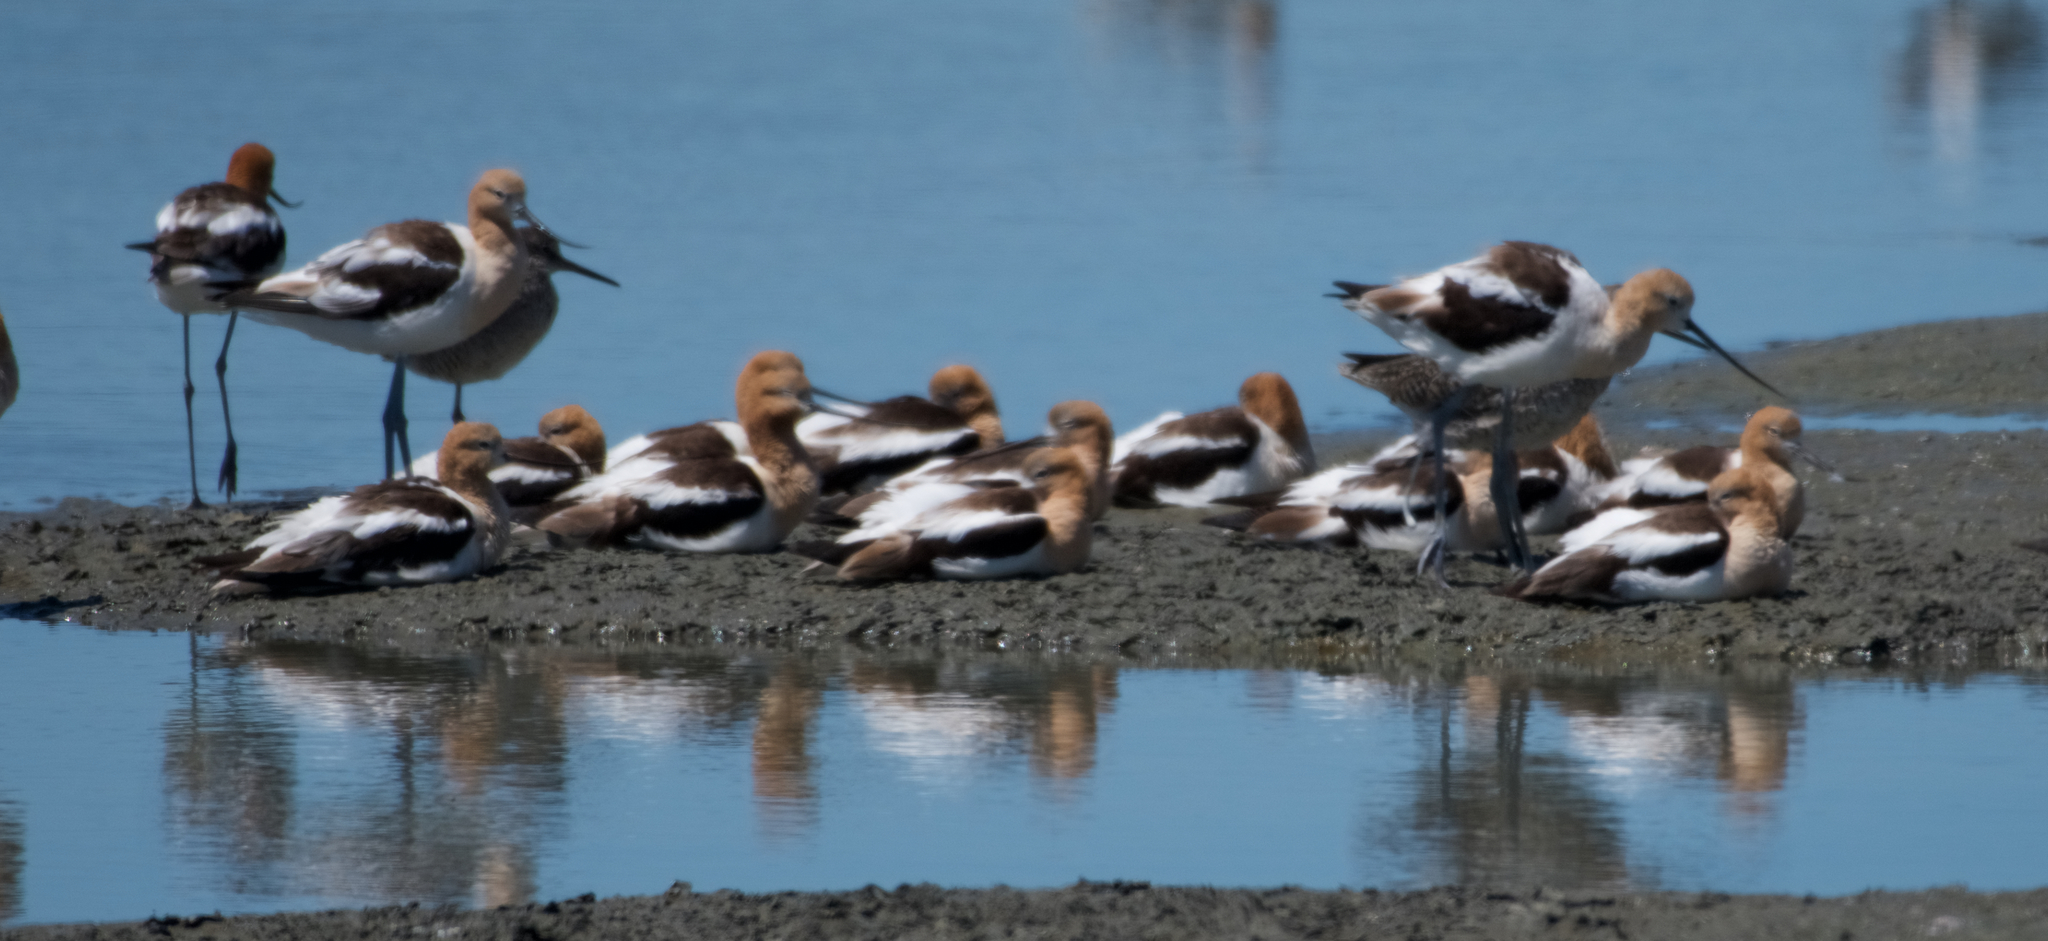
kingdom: Animalia
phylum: Chordata
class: Aves
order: Charadriiformes
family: Recurvirostridae
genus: Recurvirostra
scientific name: Recurvirostra americana
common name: American avocet
